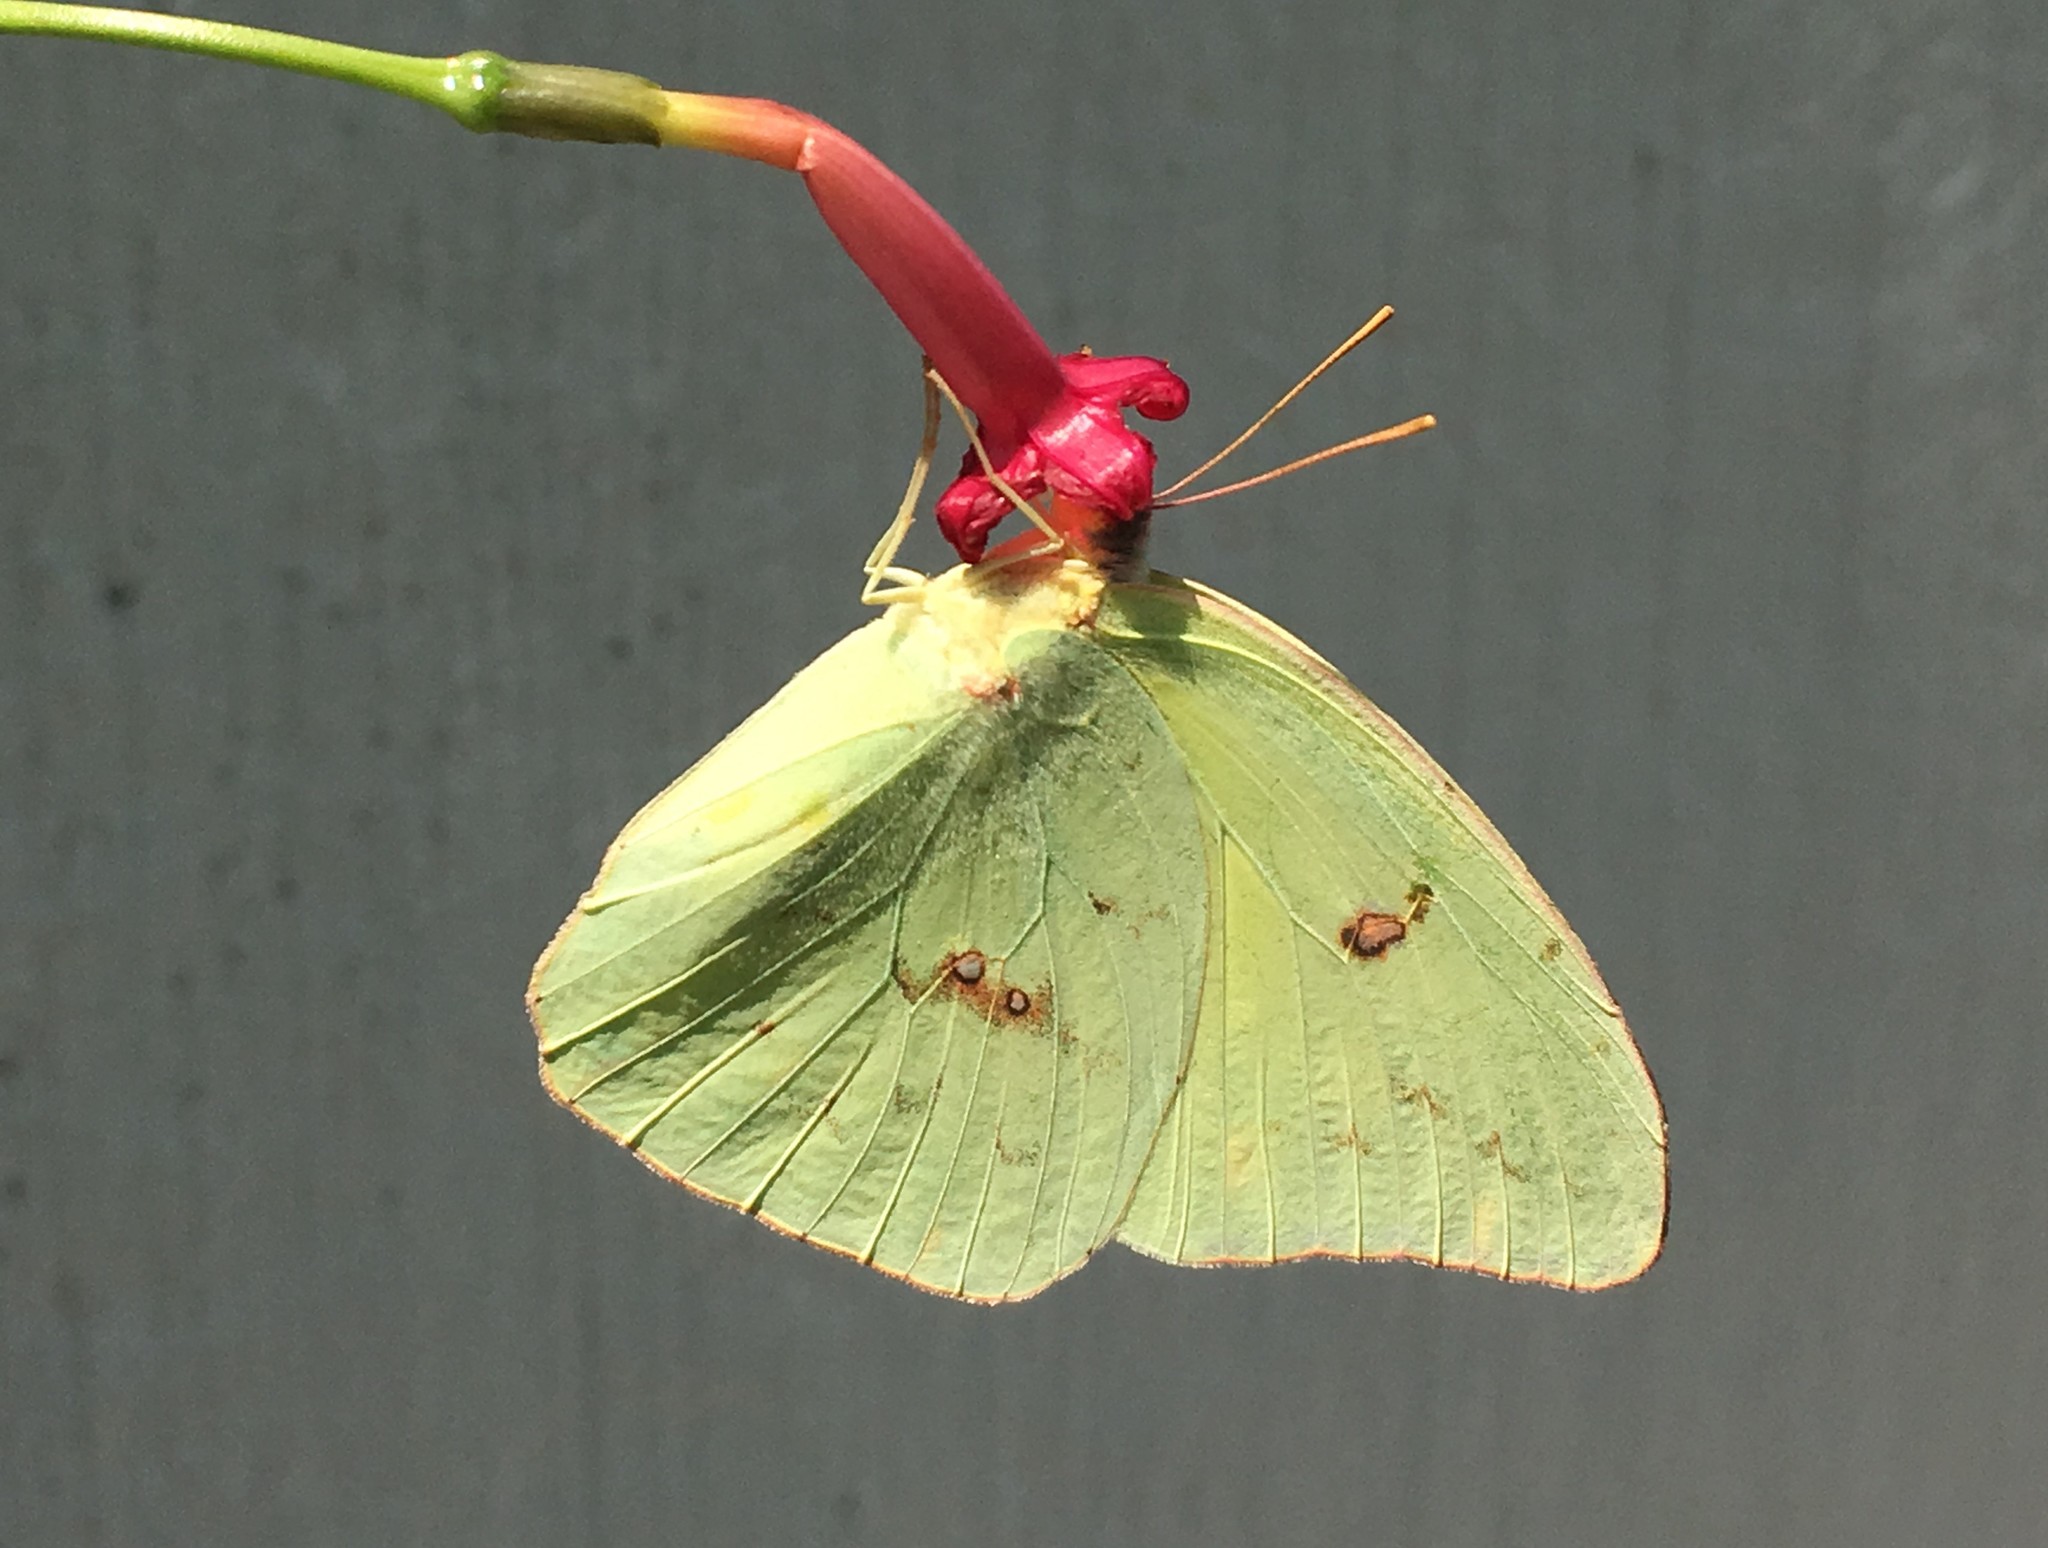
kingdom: Animalia
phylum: Arthropoda
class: Insecta
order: Lepidoptera
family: Pieridae
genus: Phoebis
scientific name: Phoebis sennae
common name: Cloudless sulphur
